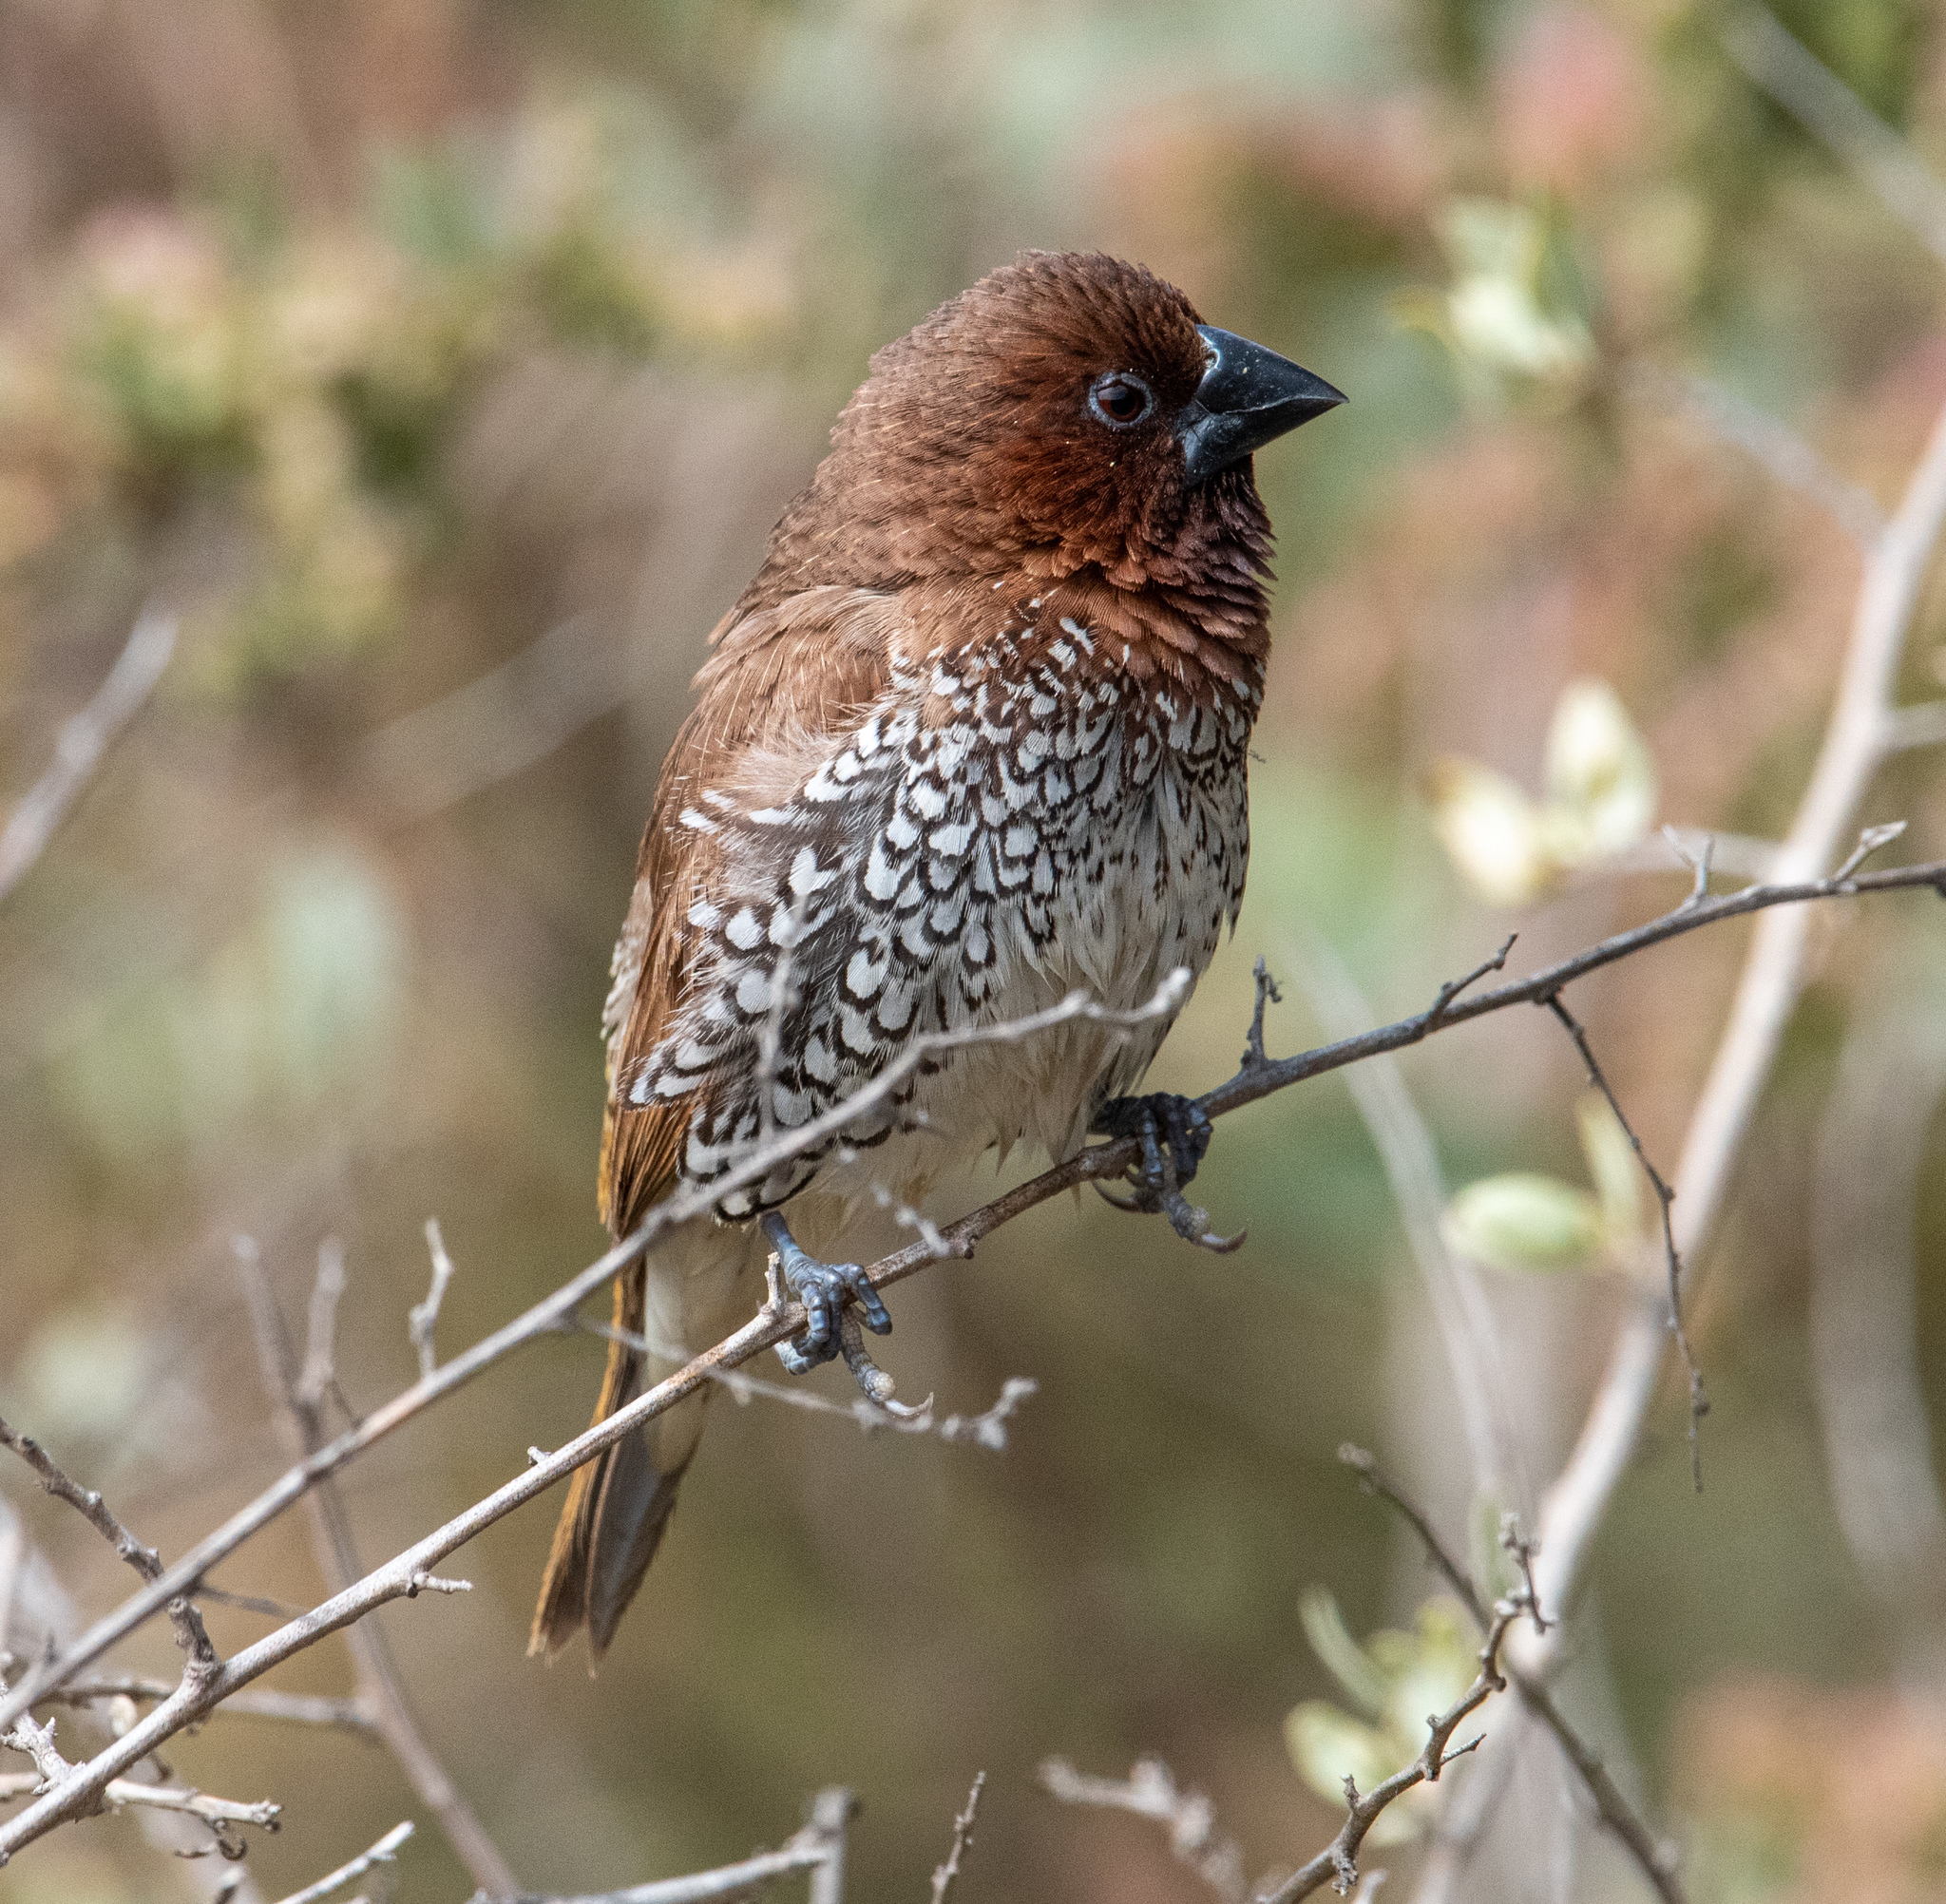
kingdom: Animalia
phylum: Chordata
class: Aves
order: Passeriformes
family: Estrildidae
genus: Lonchura
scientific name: Lonchura punctulata
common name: Scaly-breasted munia
